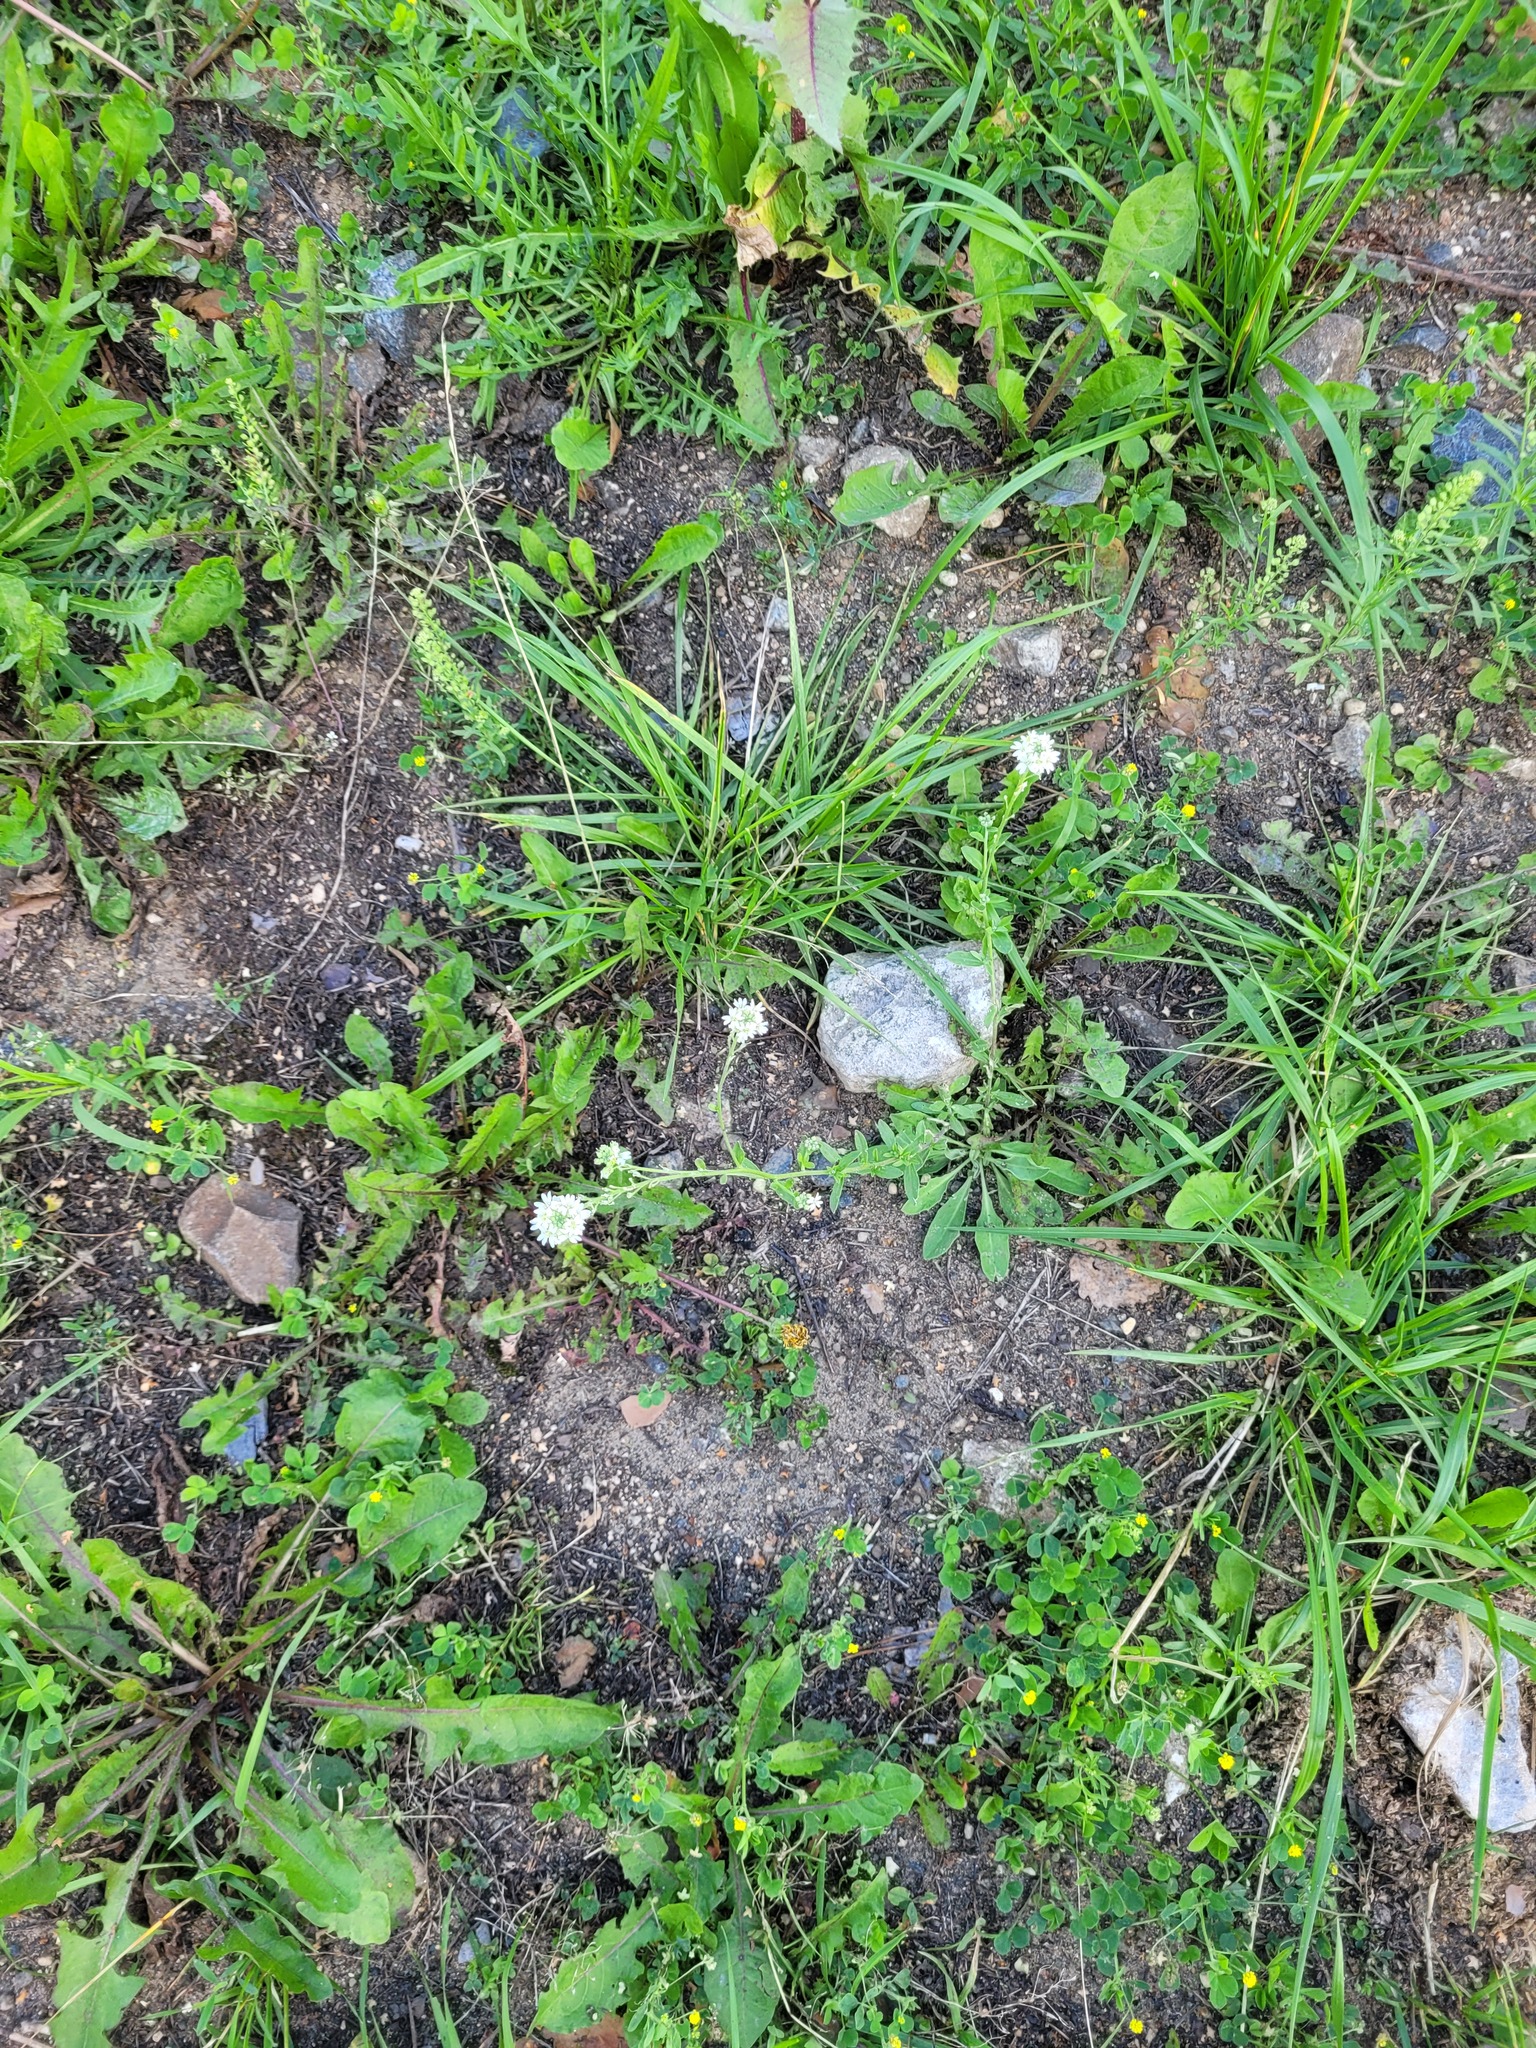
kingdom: Plantae
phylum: Tracheophyta
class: Magnoliopsida
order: Brassicales
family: Brassicaceae
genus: Berteroa
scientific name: Berteroa incana
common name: Hoary alison
